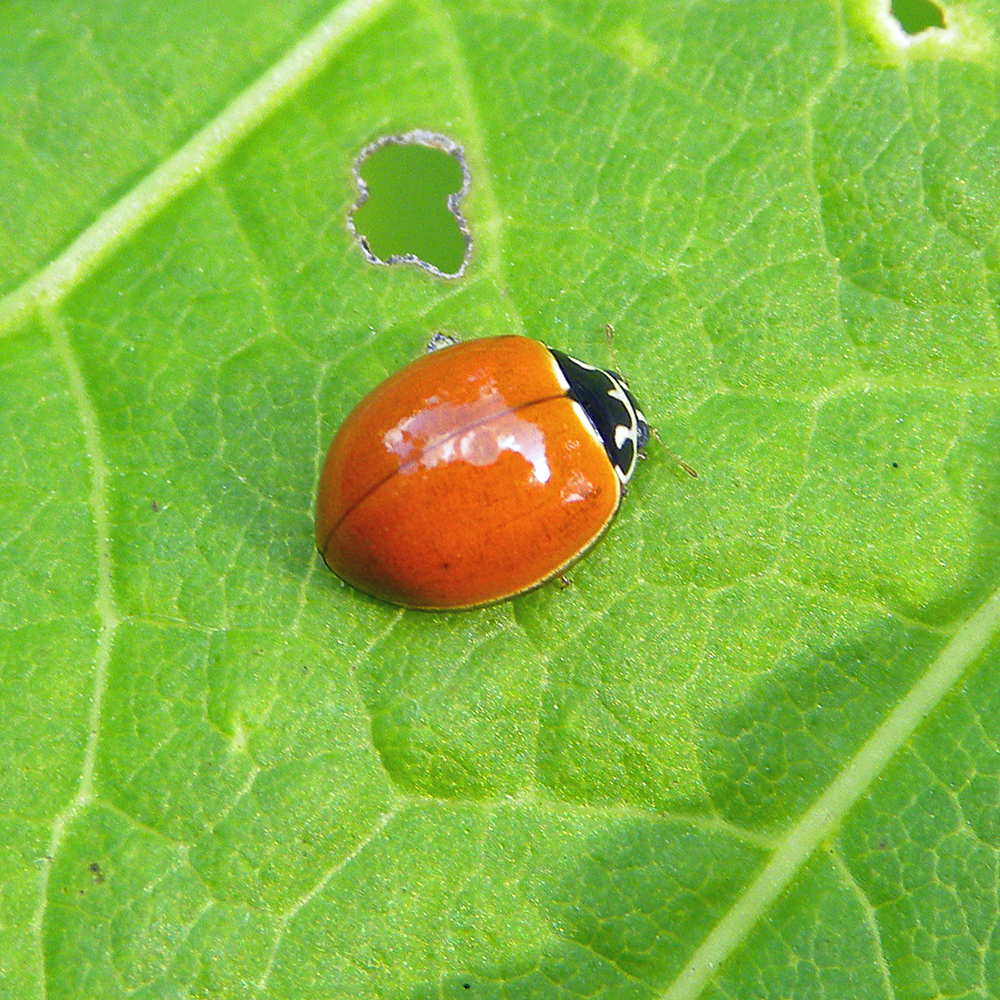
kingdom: Animalia
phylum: Arthropoda
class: Insecta
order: Coleoptera
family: Coccinellidae
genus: Cycloneda
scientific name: Cycloneda munda
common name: Polished lady beetle
